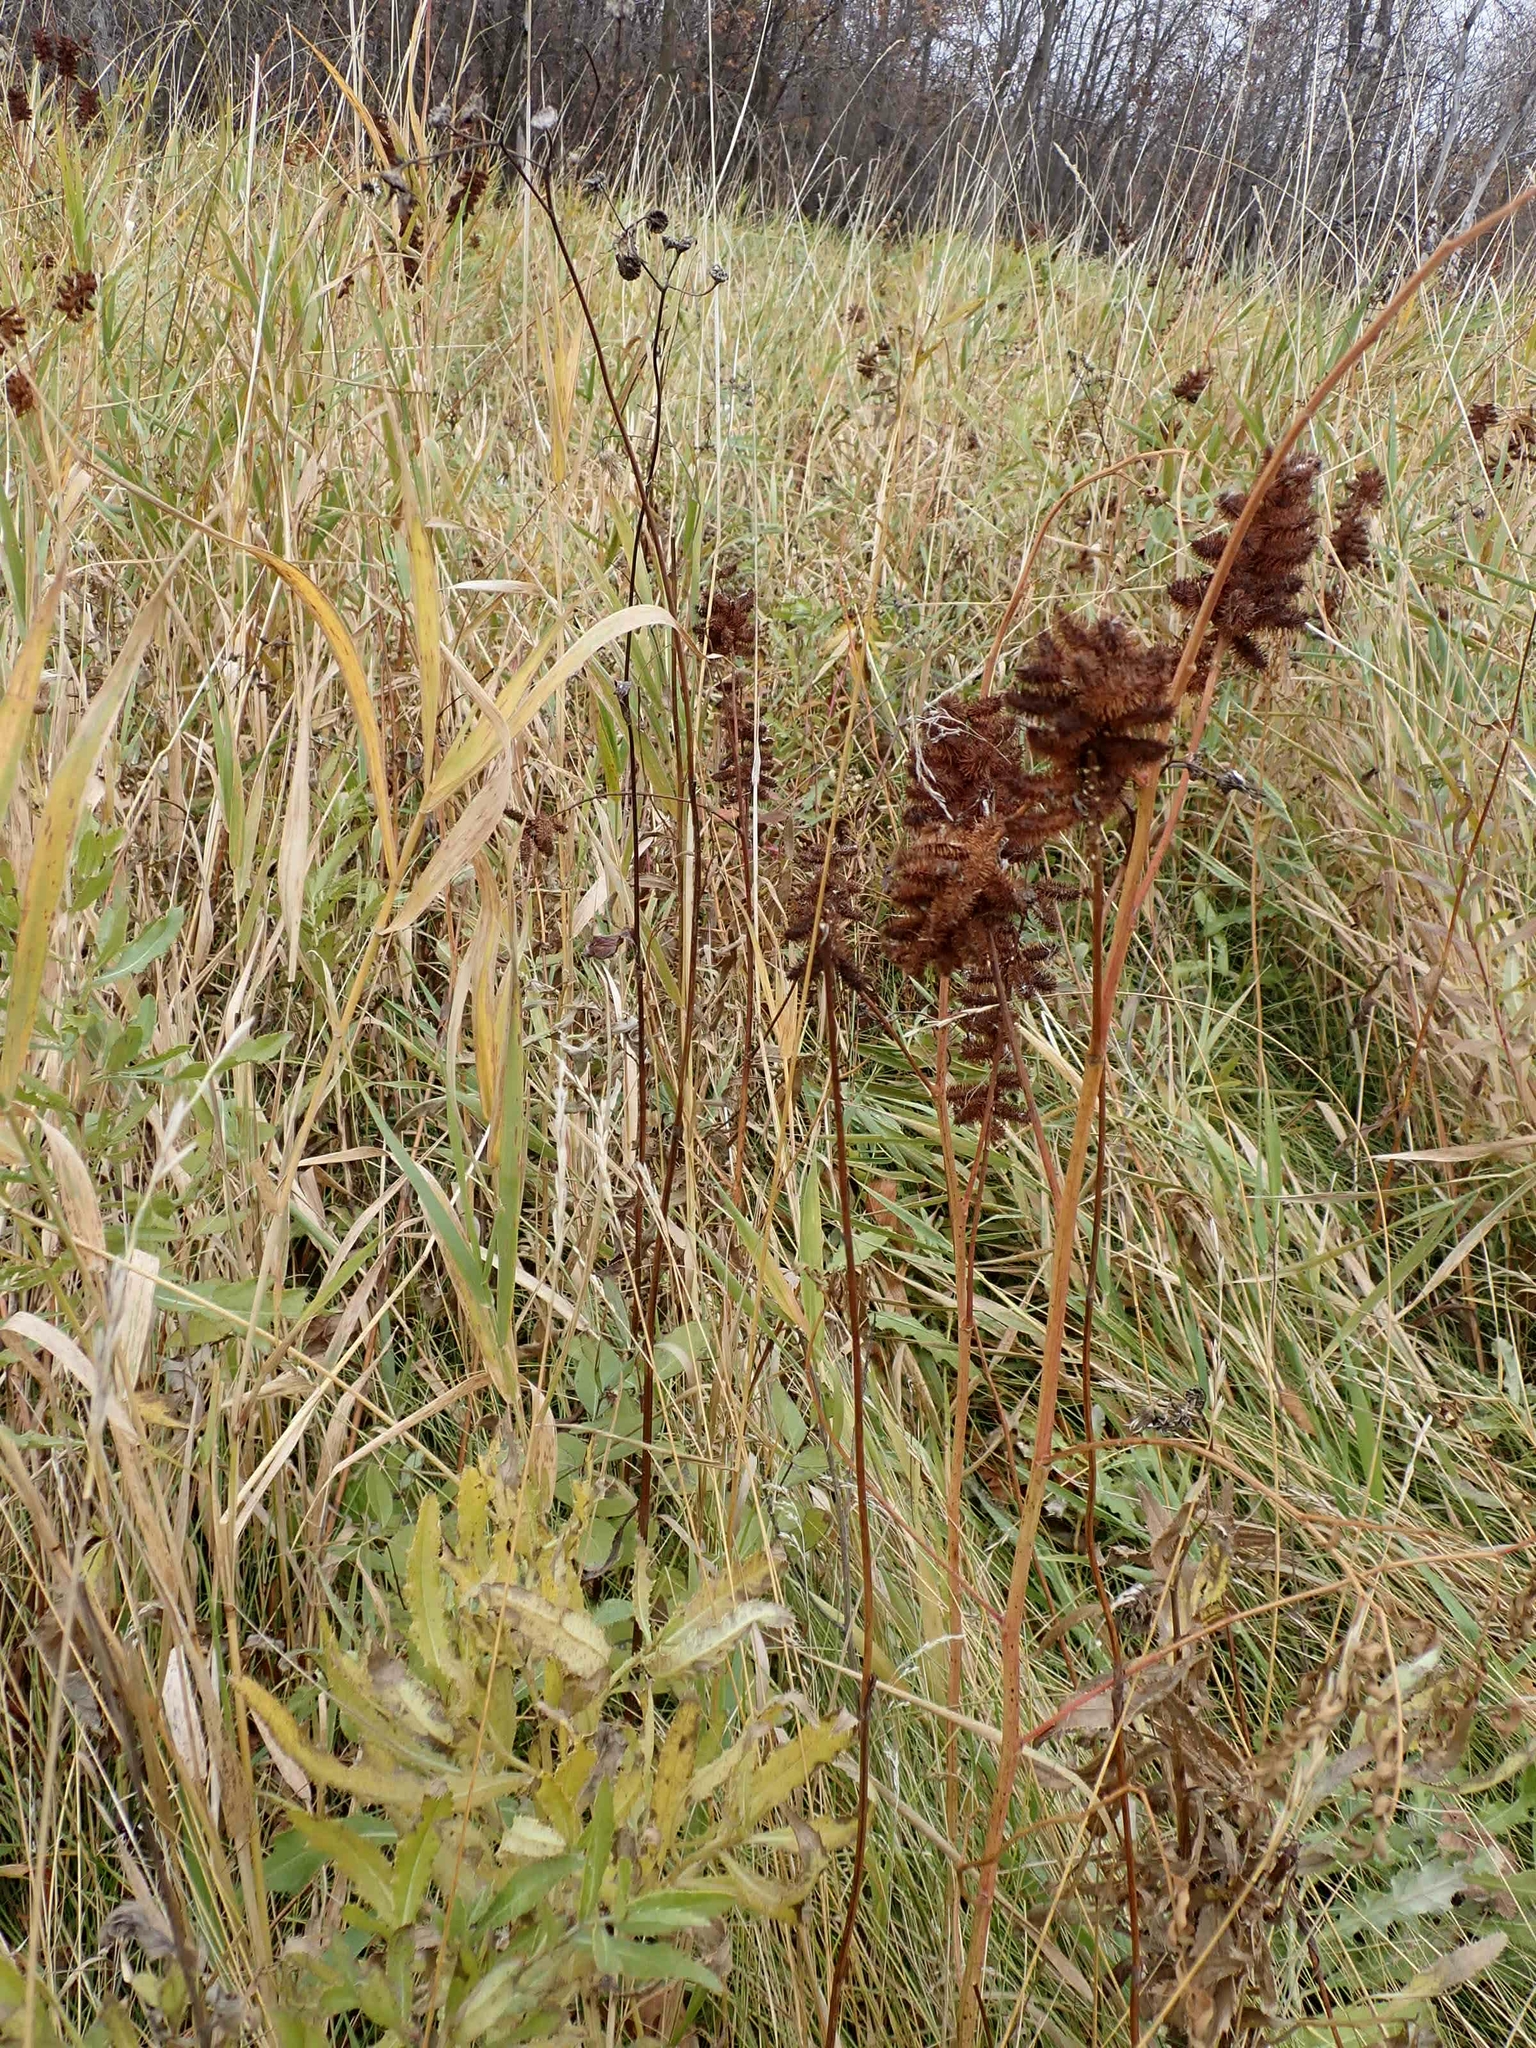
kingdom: Plantae
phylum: Tracheophyta
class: Magnoliopsida
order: Fabales
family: Fabaceae
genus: Glycyrrhiza
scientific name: Glycyrrhiza lepidota
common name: American liquorice
